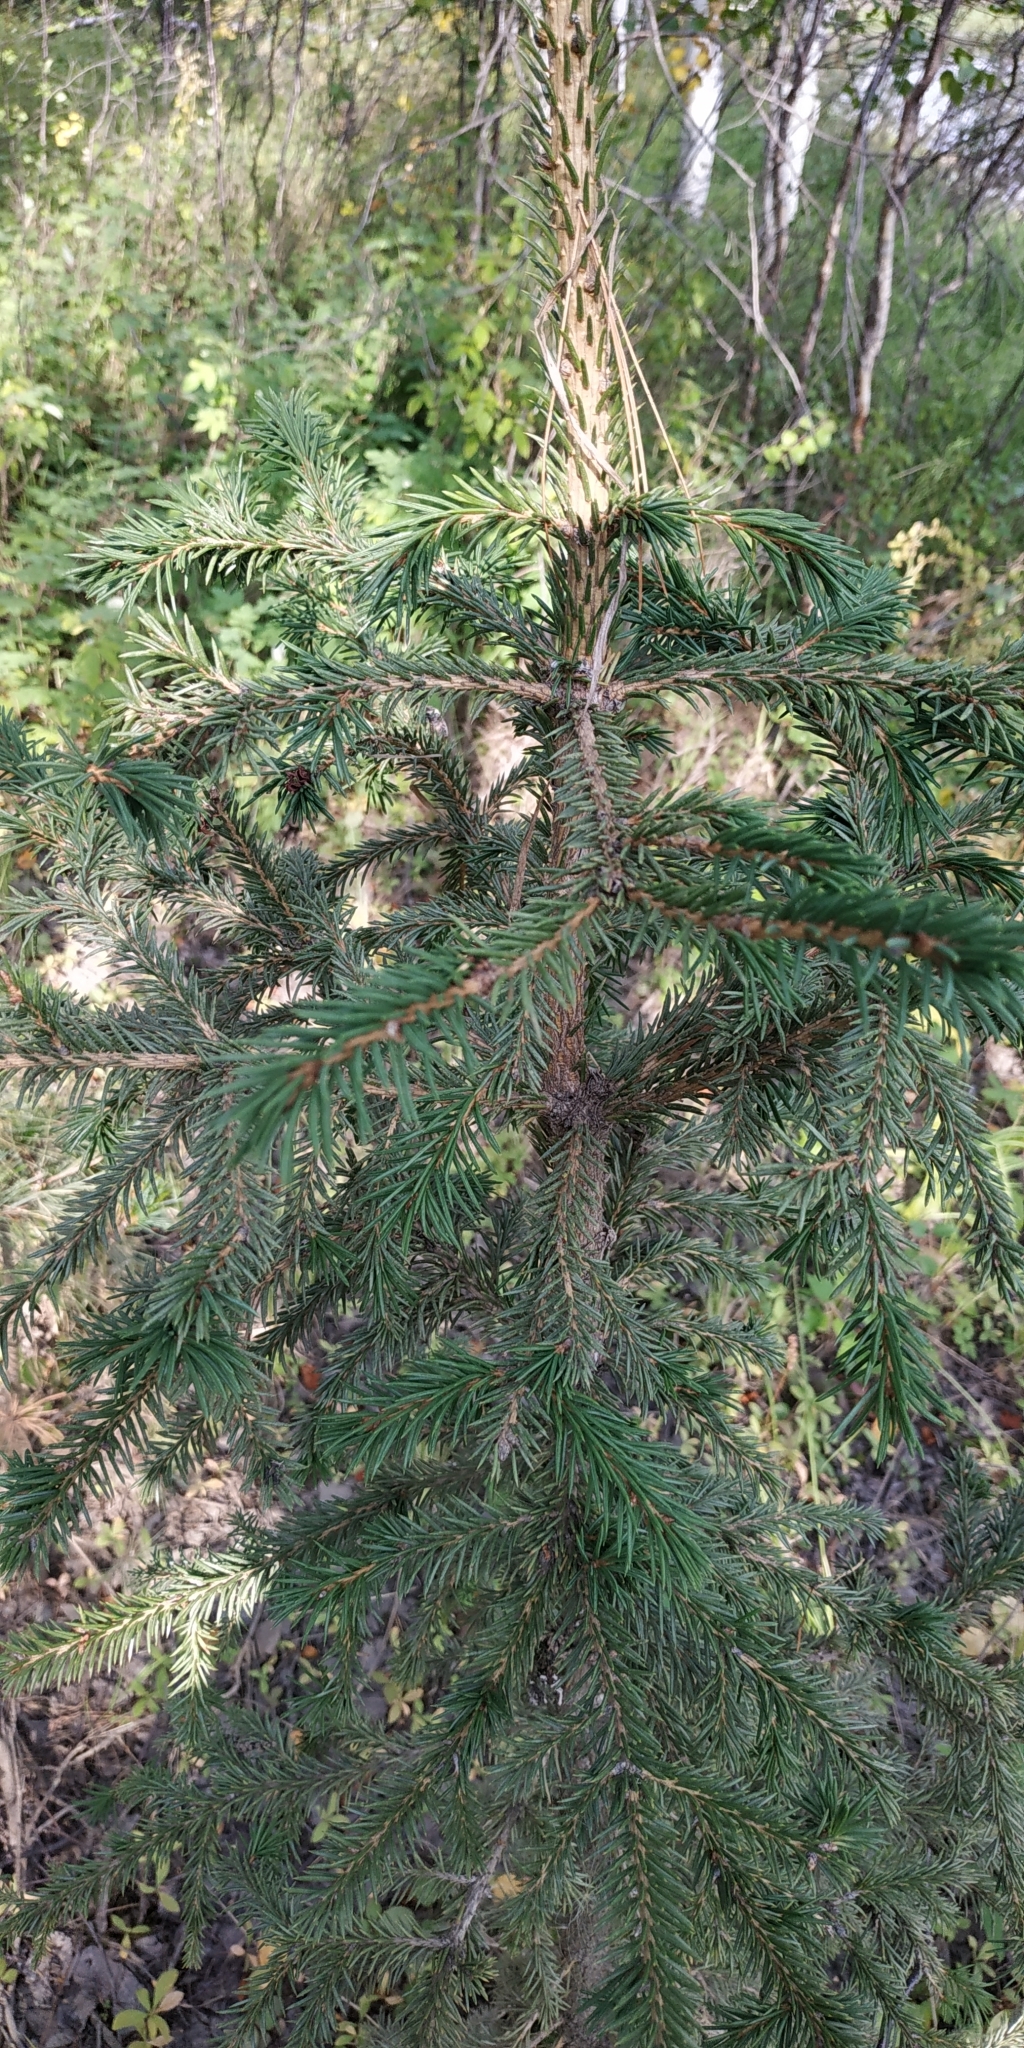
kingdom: Plantae
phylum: Tracheophyta
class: Pinopsida
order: Pinales
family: Pinaceae
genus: Picea
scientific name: Picea obovata
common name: Siberian spruce
